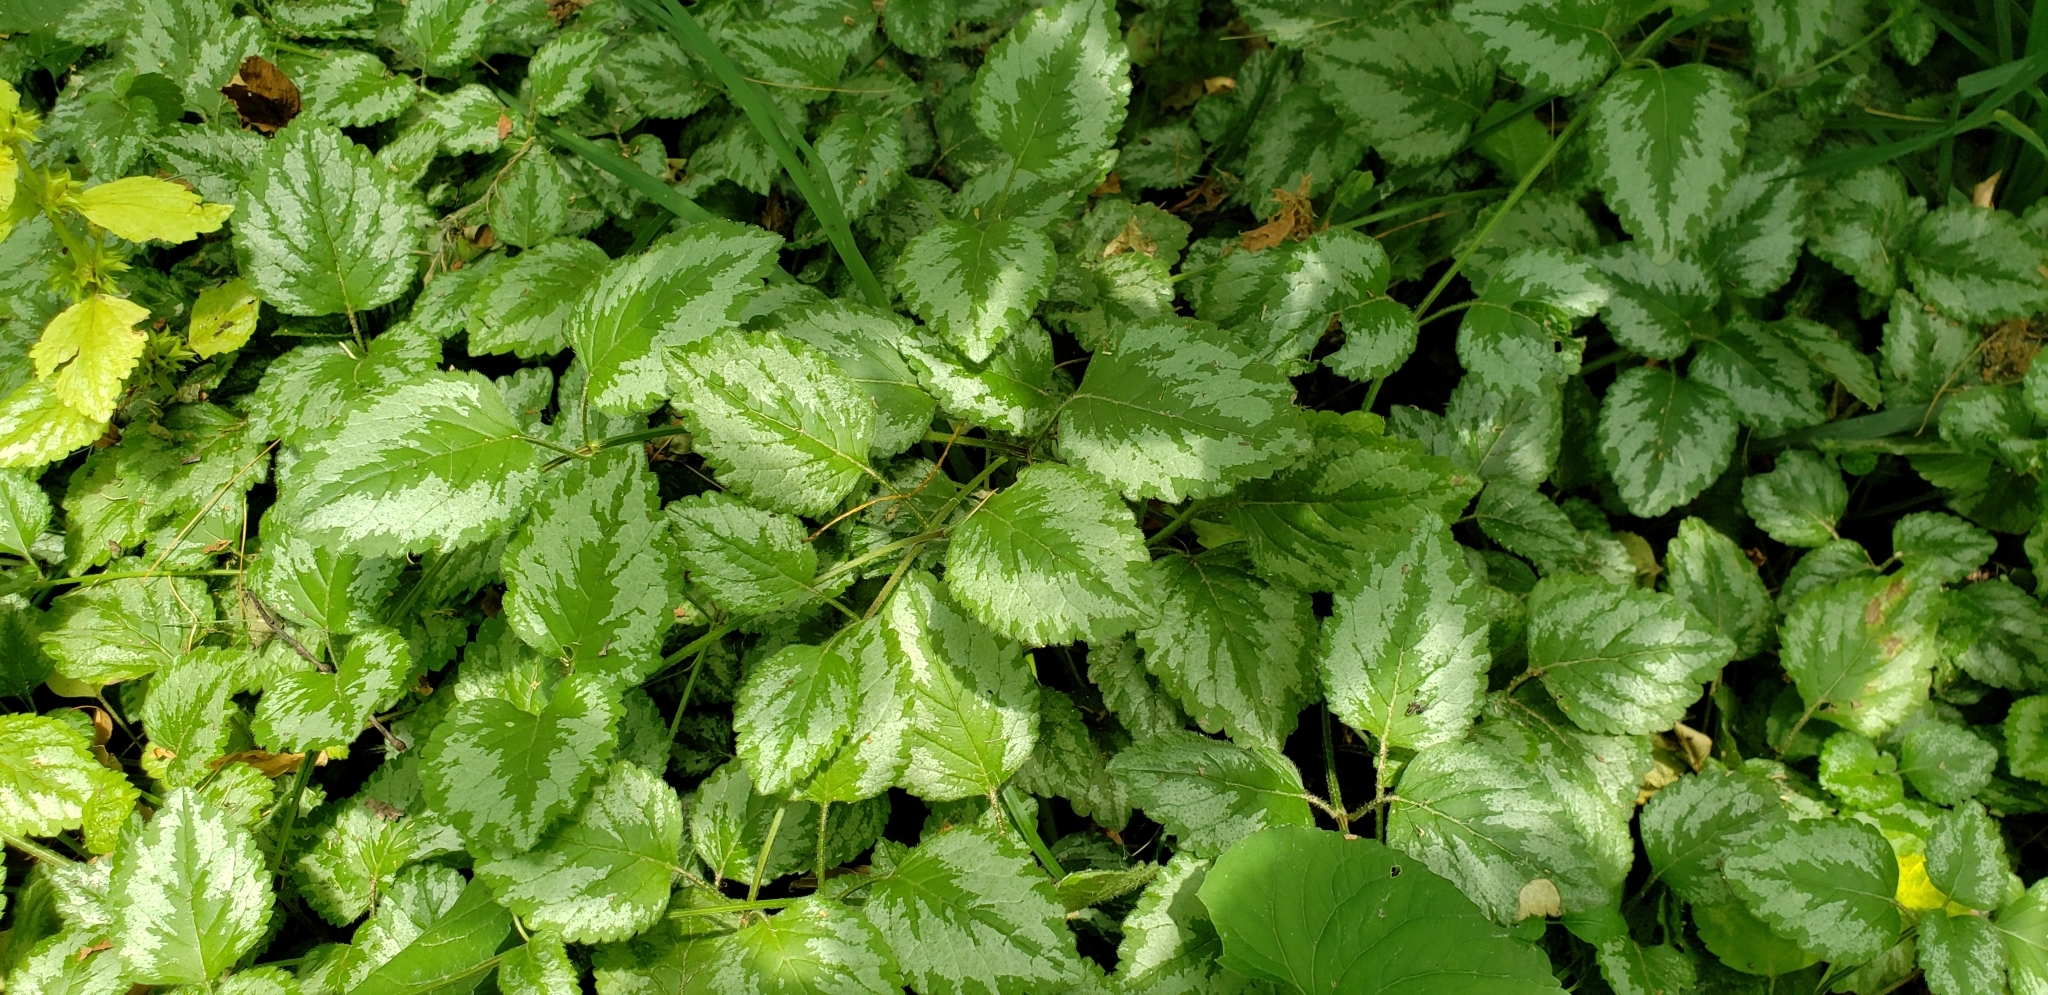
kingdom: Plantae
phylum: Tracheophyta
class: Magnoliopsida
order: Lamiales
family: Lamiaceae
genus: Lamium
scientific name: Lamium galeobdolon
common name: Yellow archangel
